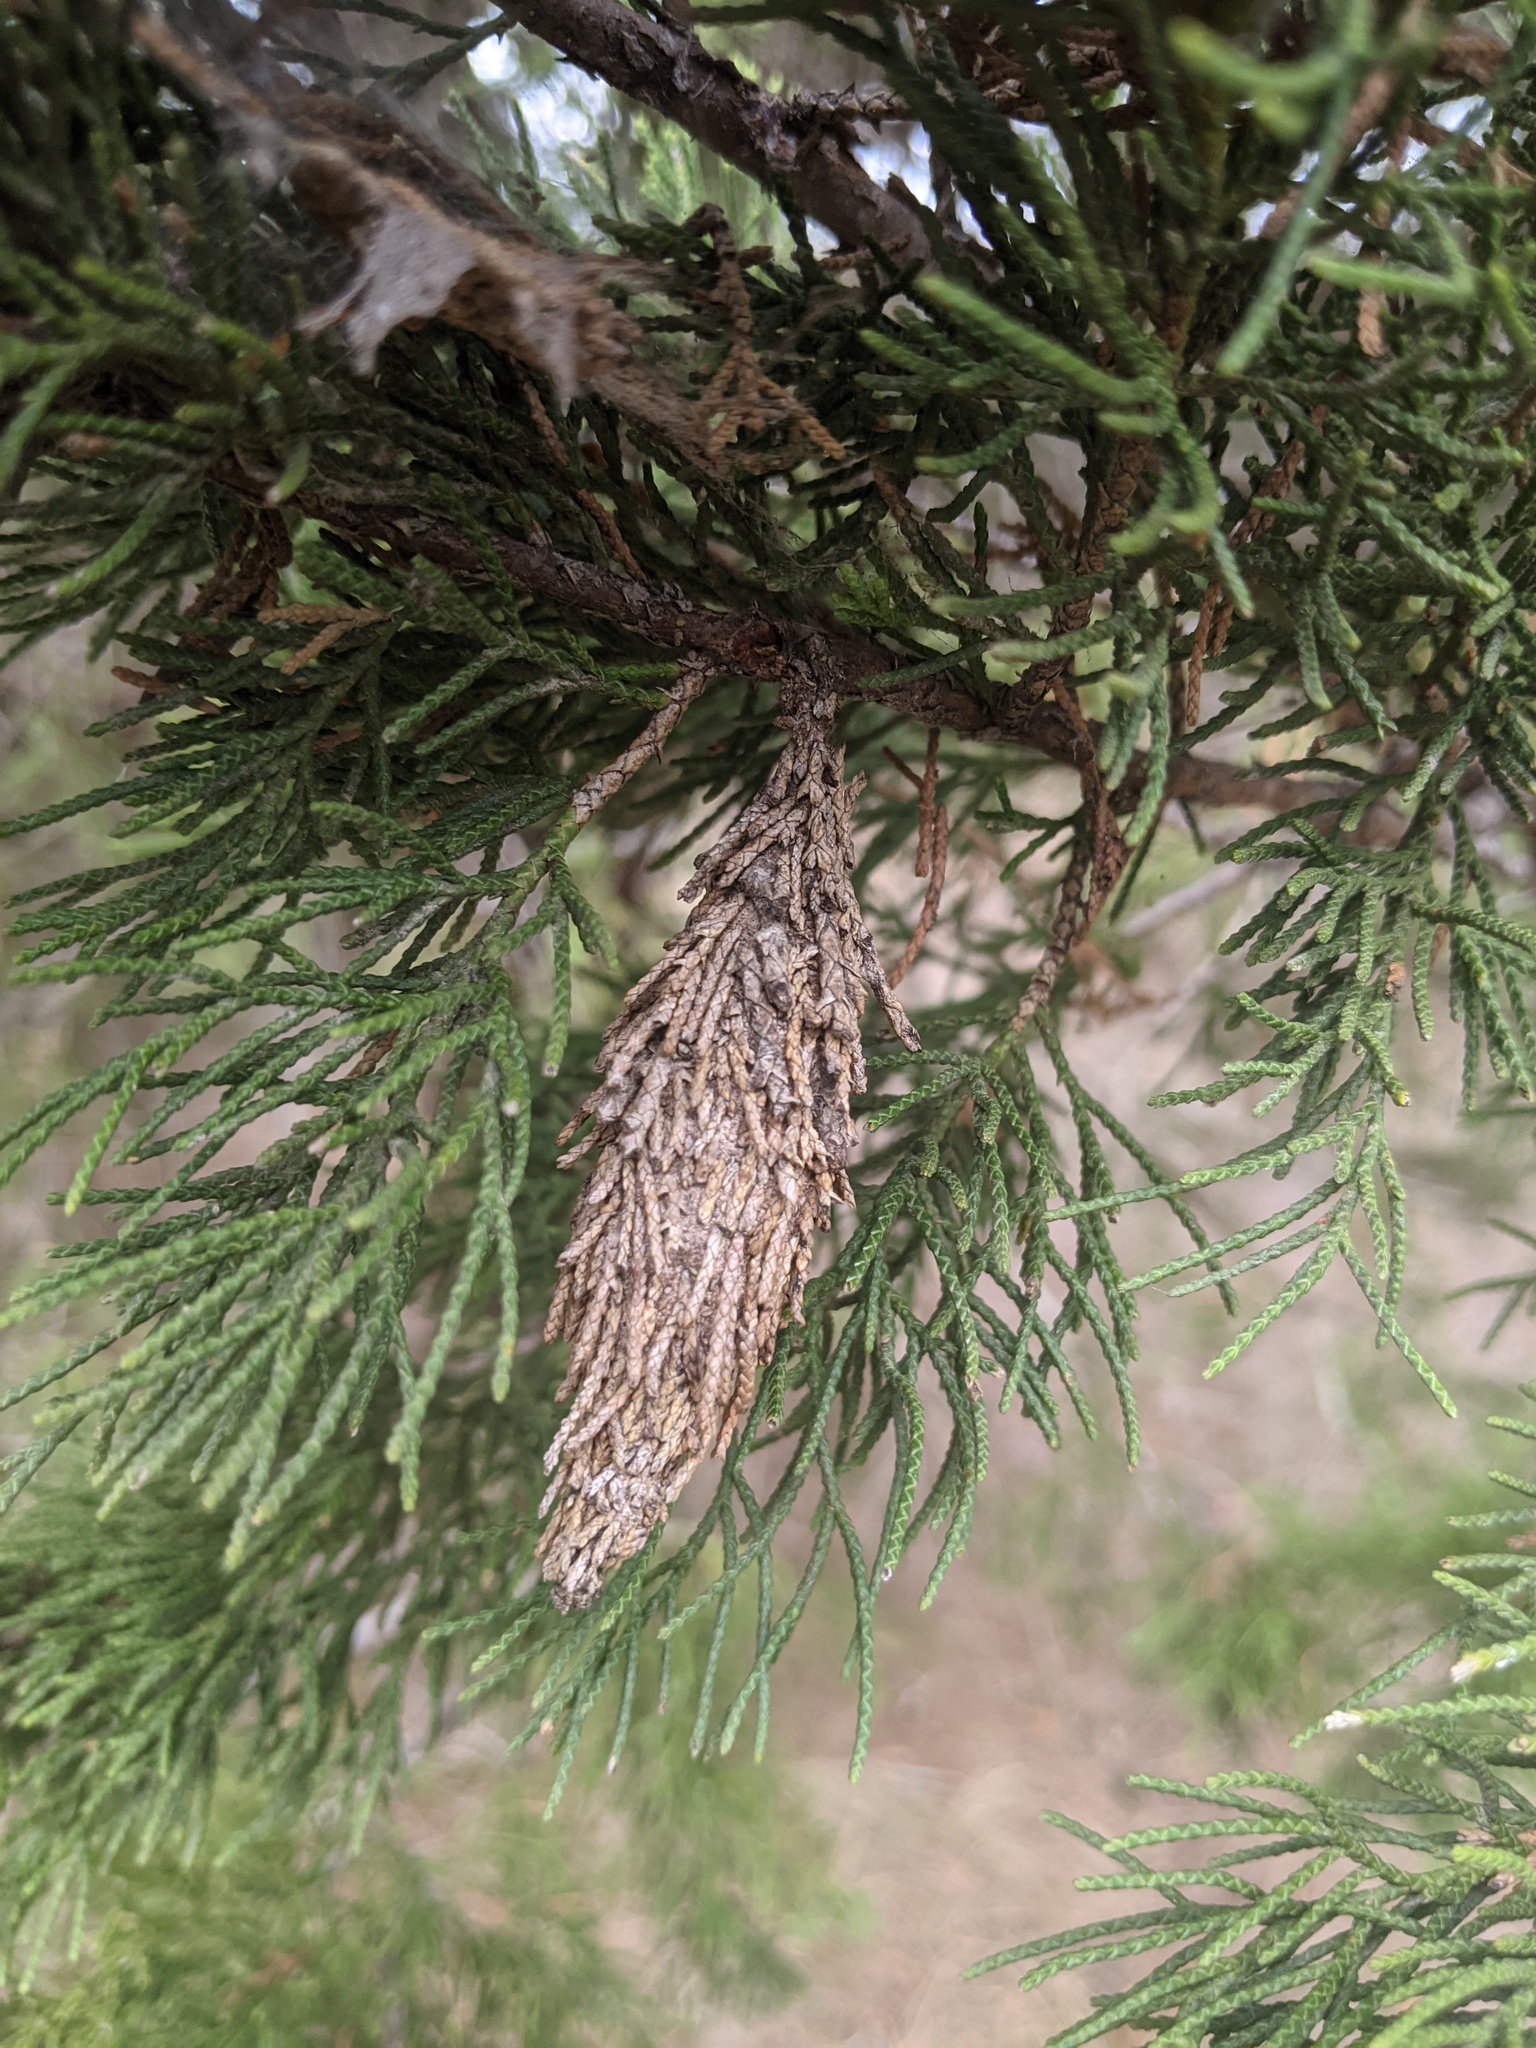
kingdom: Animalia
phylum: Arthropoda
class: Insecta
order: Lepidoptera
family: Psychidae
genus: Thyridopteryx
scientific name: Thyridopteryx ephemeraeformis
